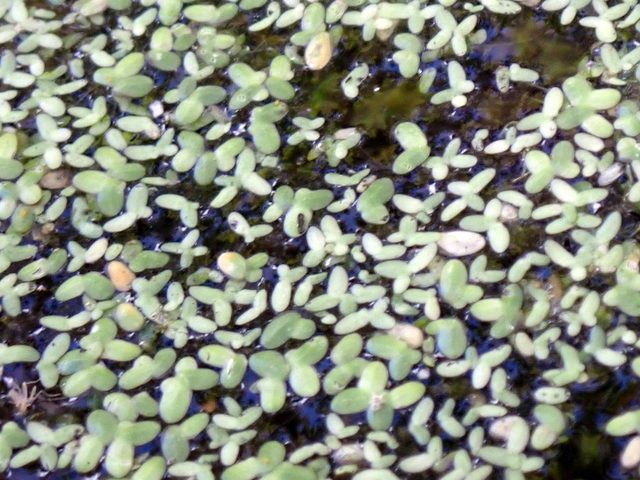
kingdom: Plantae
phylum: Tracheophyta
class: Liliopsida
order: Alismatales
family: Araceae
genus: Lemna
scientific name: Lemna minor
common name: Common duckweed
